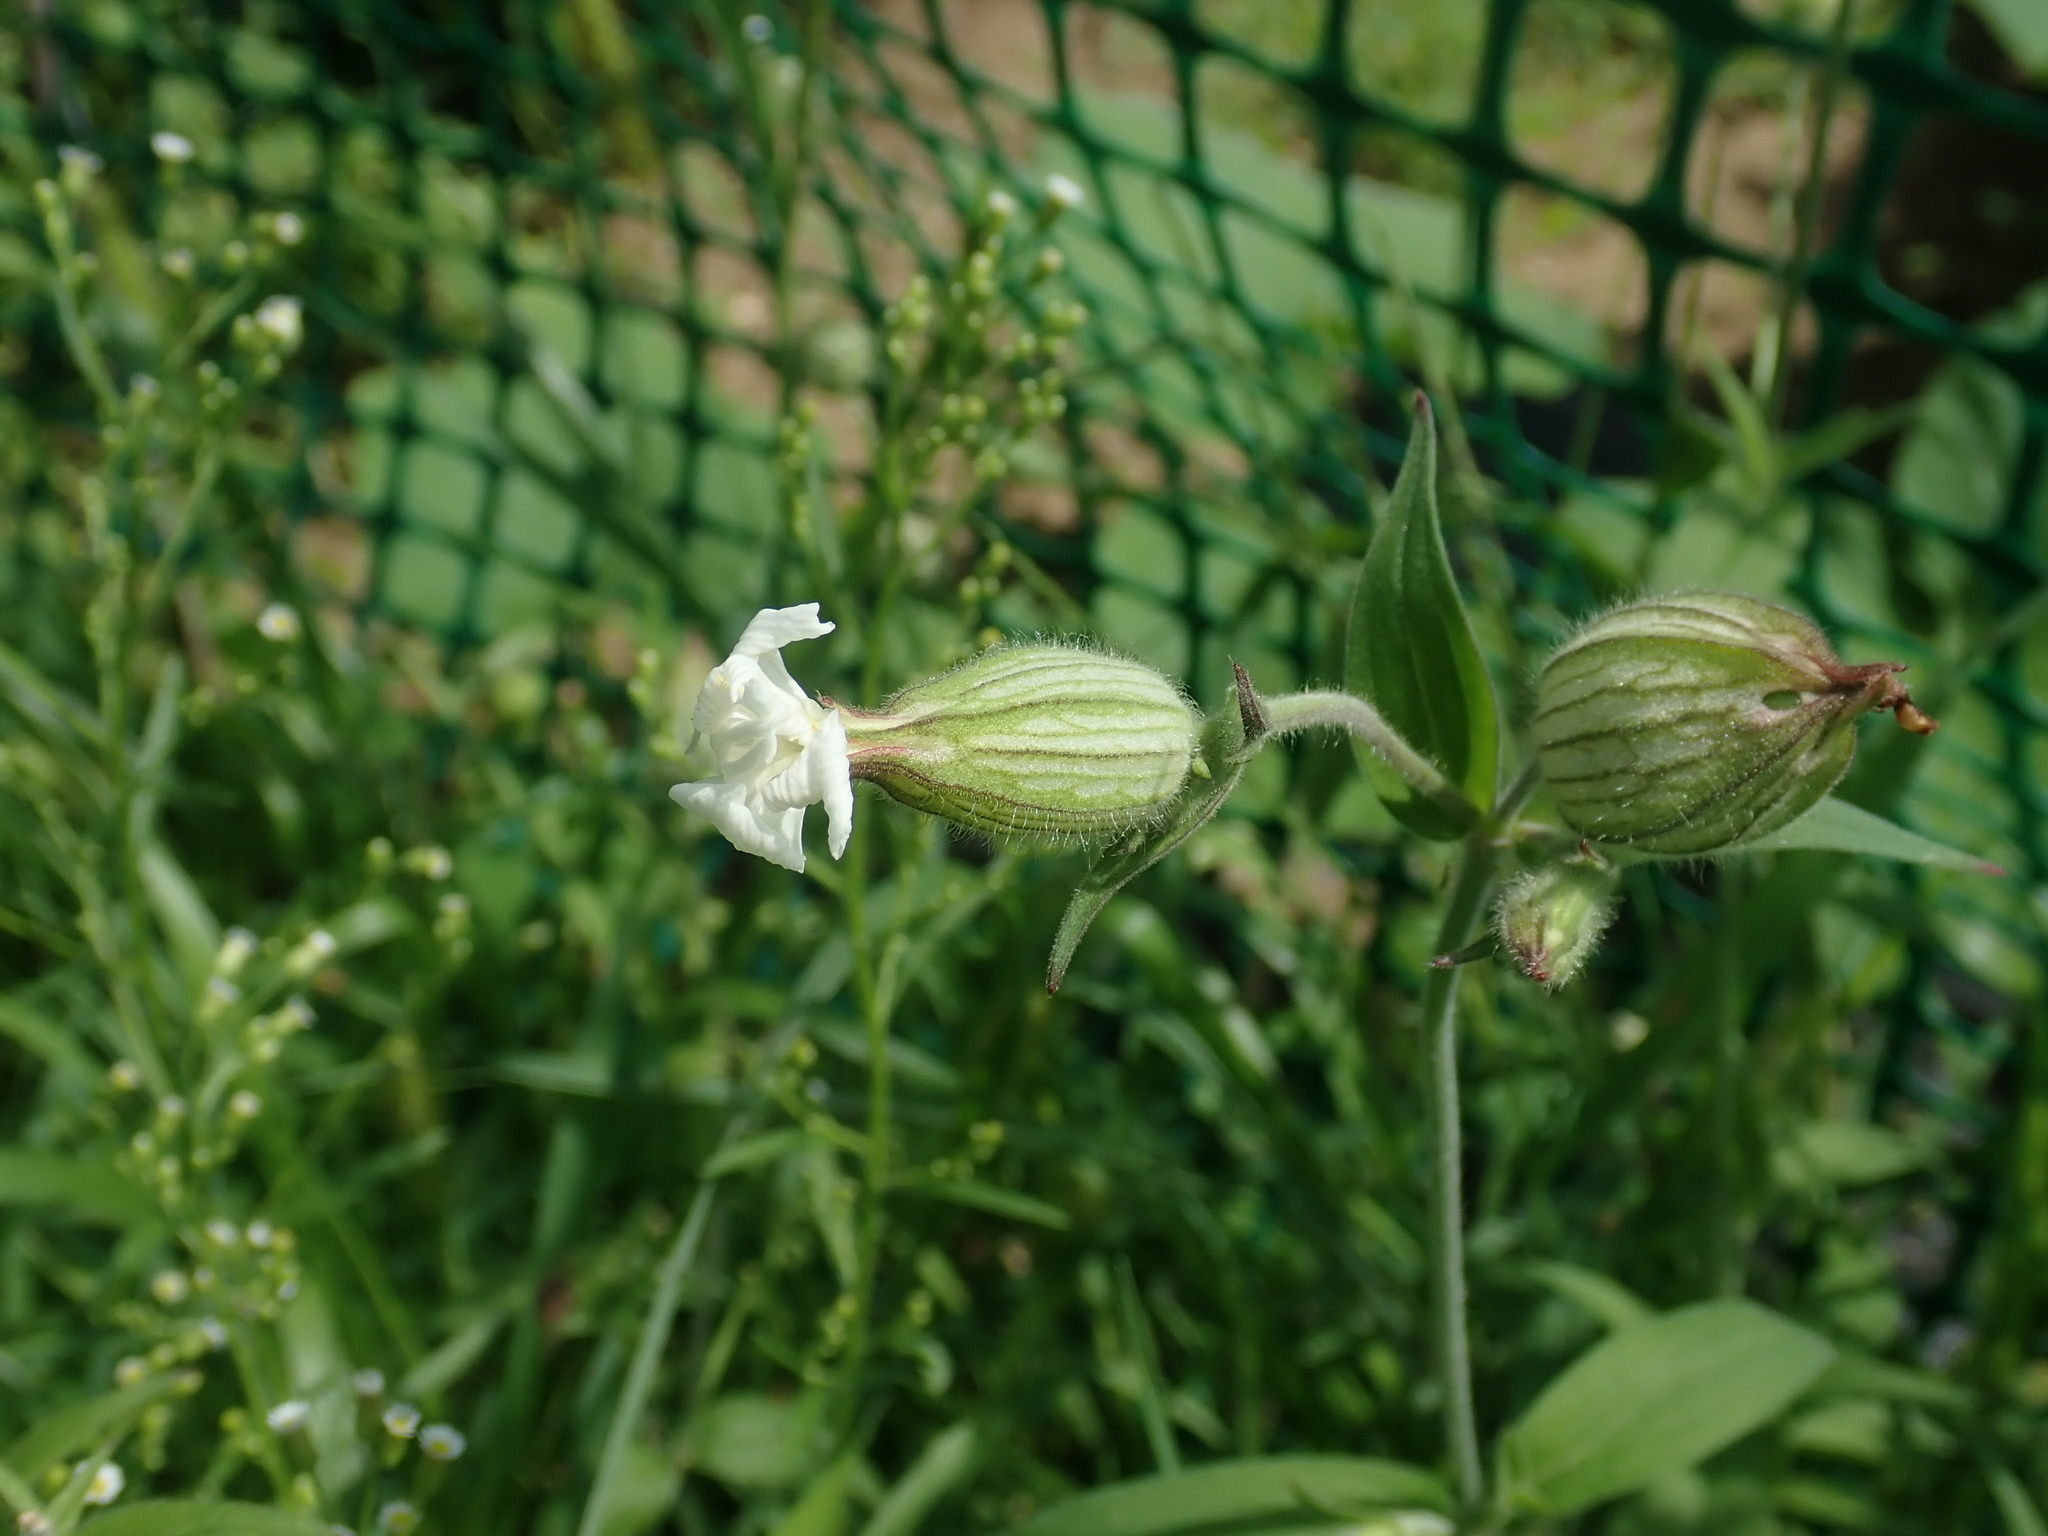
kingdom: Plantae
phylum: Tracheophyta
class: Magnoliopsida
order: Caryophyllales
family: Caryophyllaceae
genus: Silene
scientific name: Silene latifolia
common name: White campion
